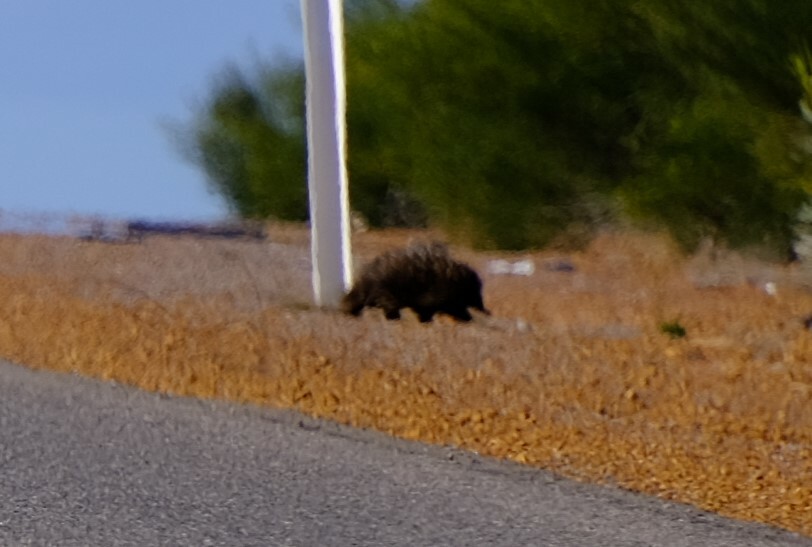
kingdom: Animalia
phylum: Chordata
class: Mammalia
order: Monotremata
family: Tachyglossidae
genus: Tachyglossus
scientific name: Tachyglossus aculeatus
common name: Short-beaked echidna
